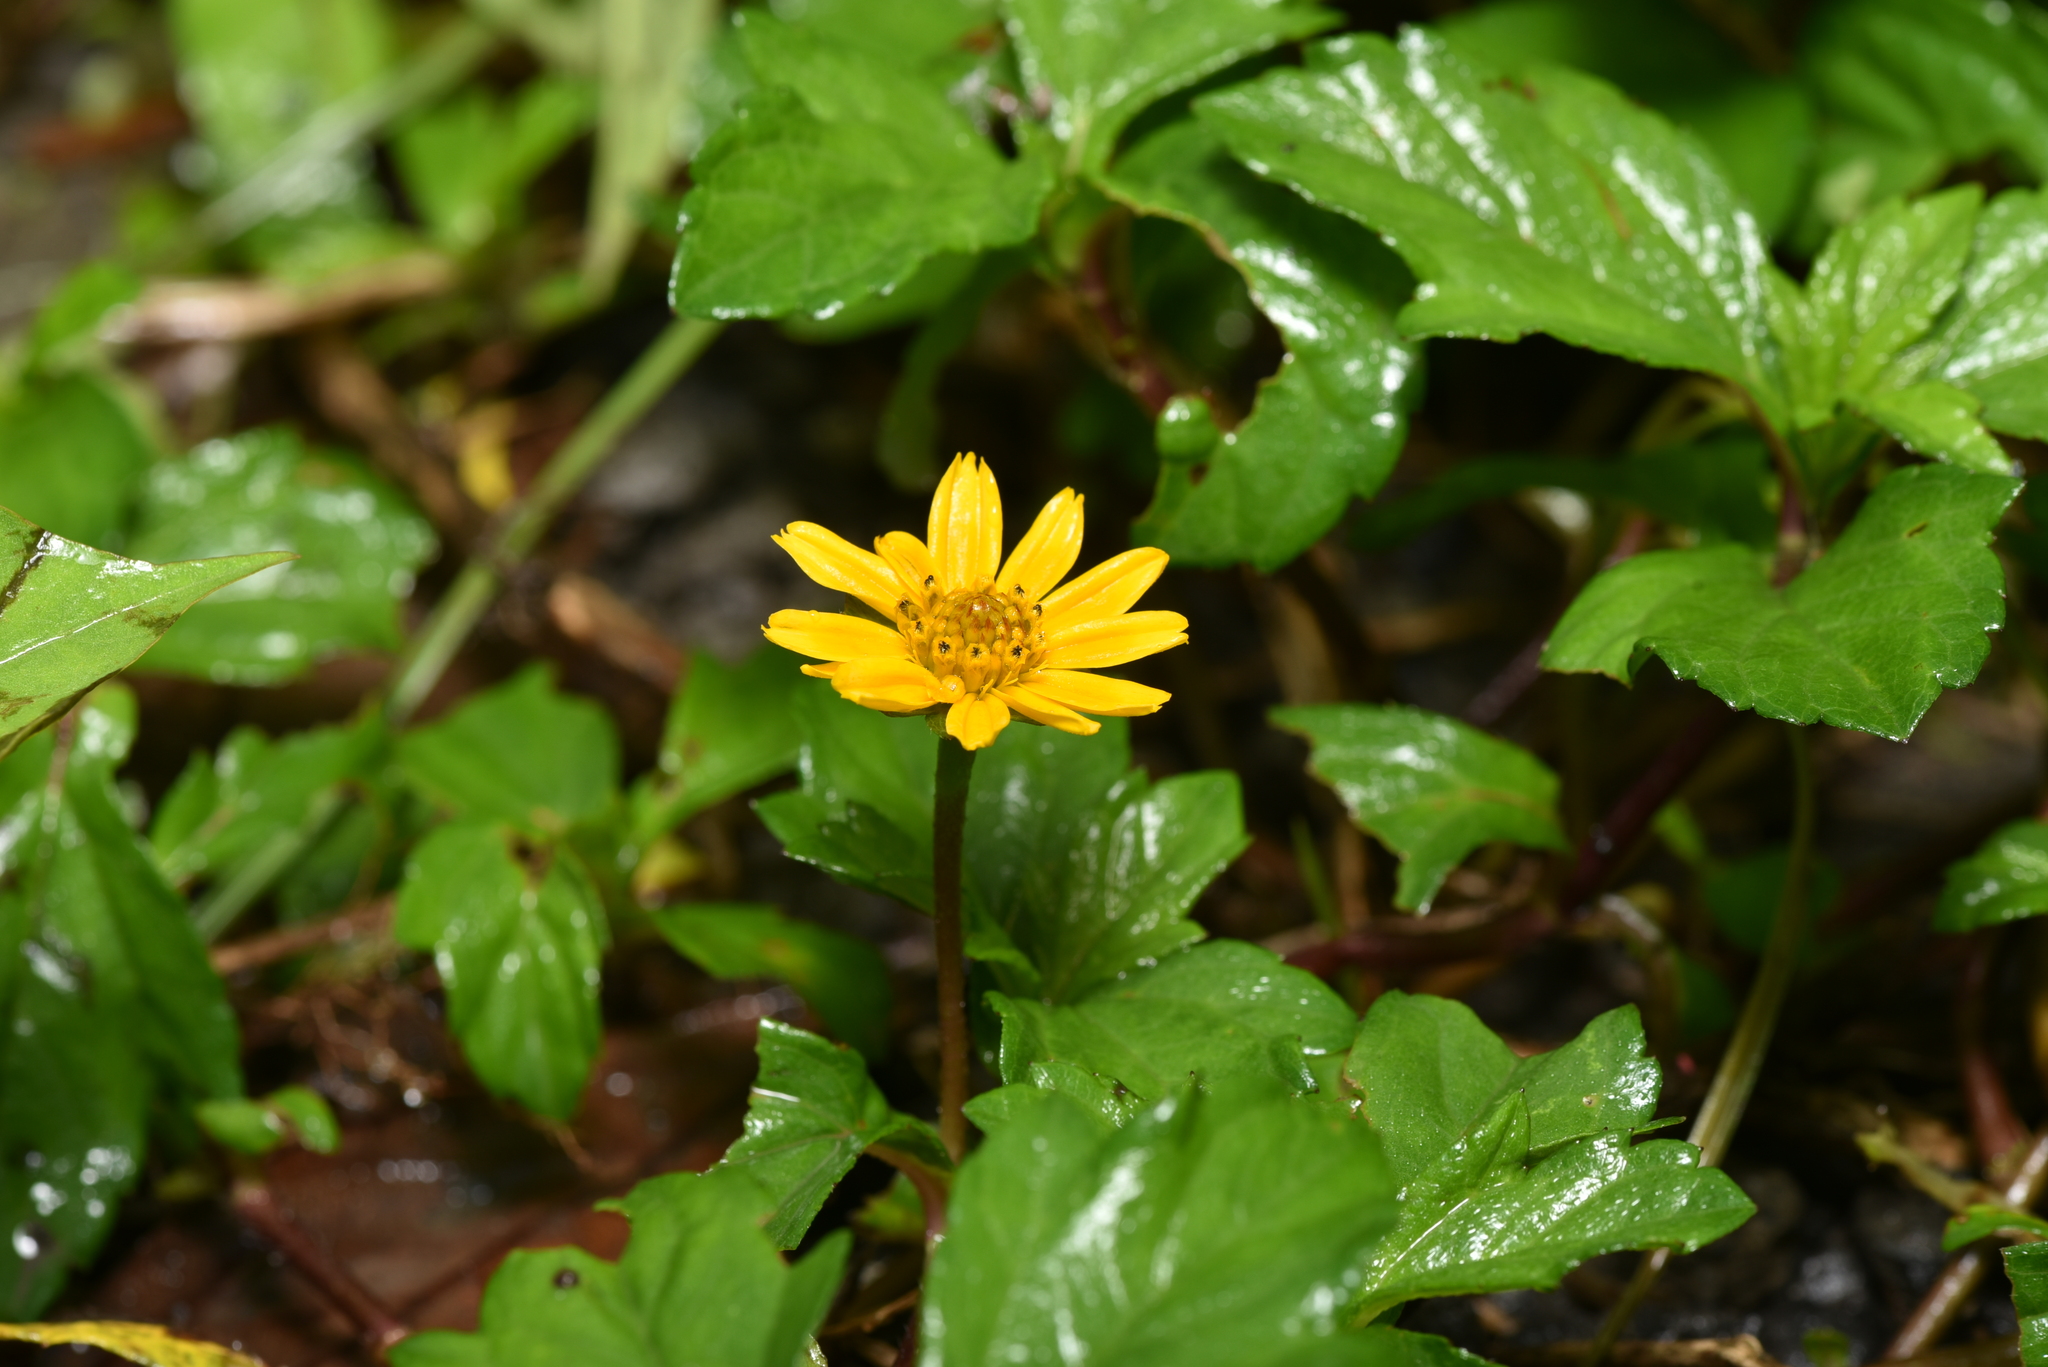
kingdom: Plantae
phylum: Tracheophyta
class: Magnoliopsida
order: Asterales
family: Asteraceae
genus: Sphagneticola
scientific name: Sphagneticola trilobata
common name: Bay biscayne creeping-oxeye
